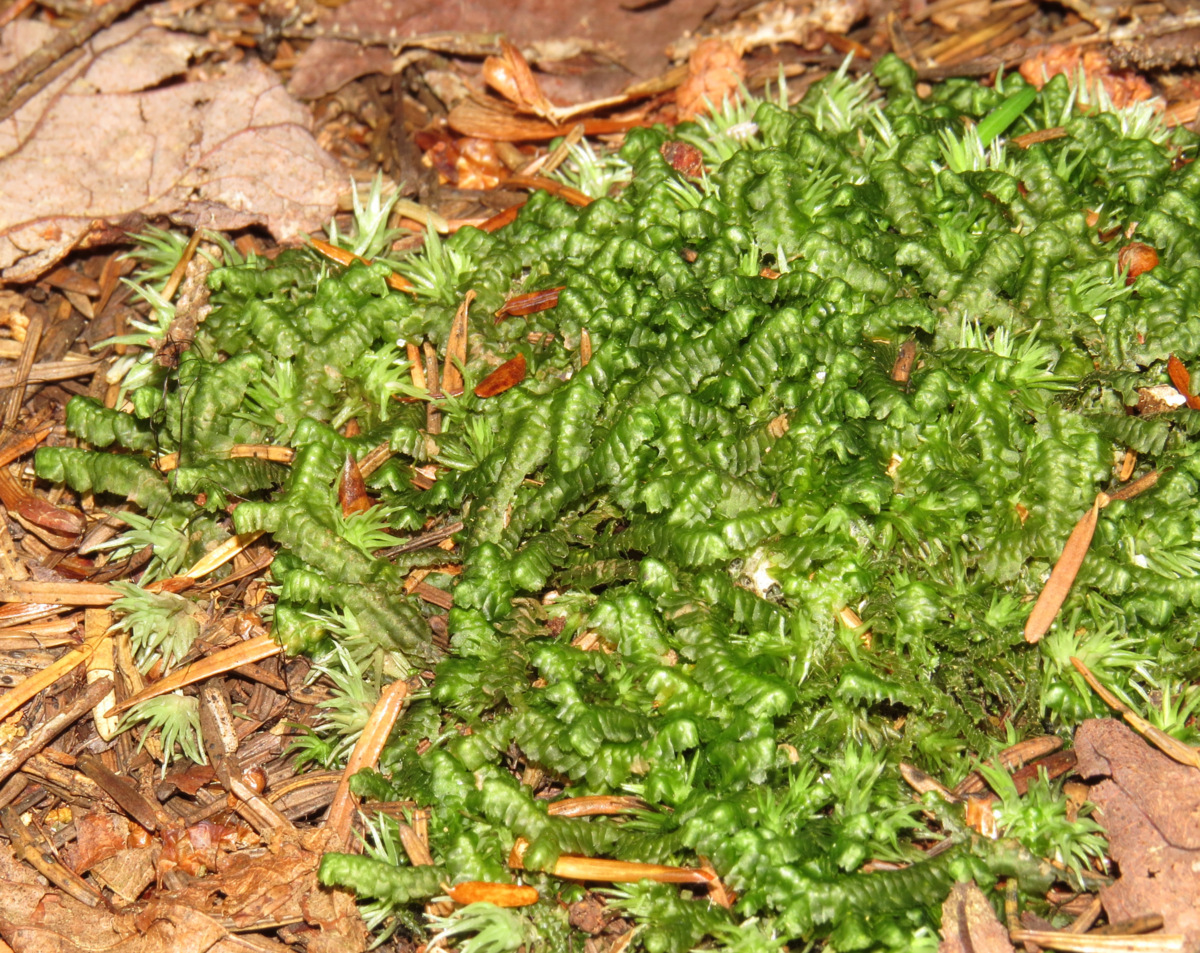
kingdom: Plantae
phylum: Marchantiophyta
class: Jungermanniopsida
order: Jungermanniales
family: Lepidoziaceae
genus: Bazzania
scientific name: Bazzania trilobata
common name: Three-lobed whipwort
